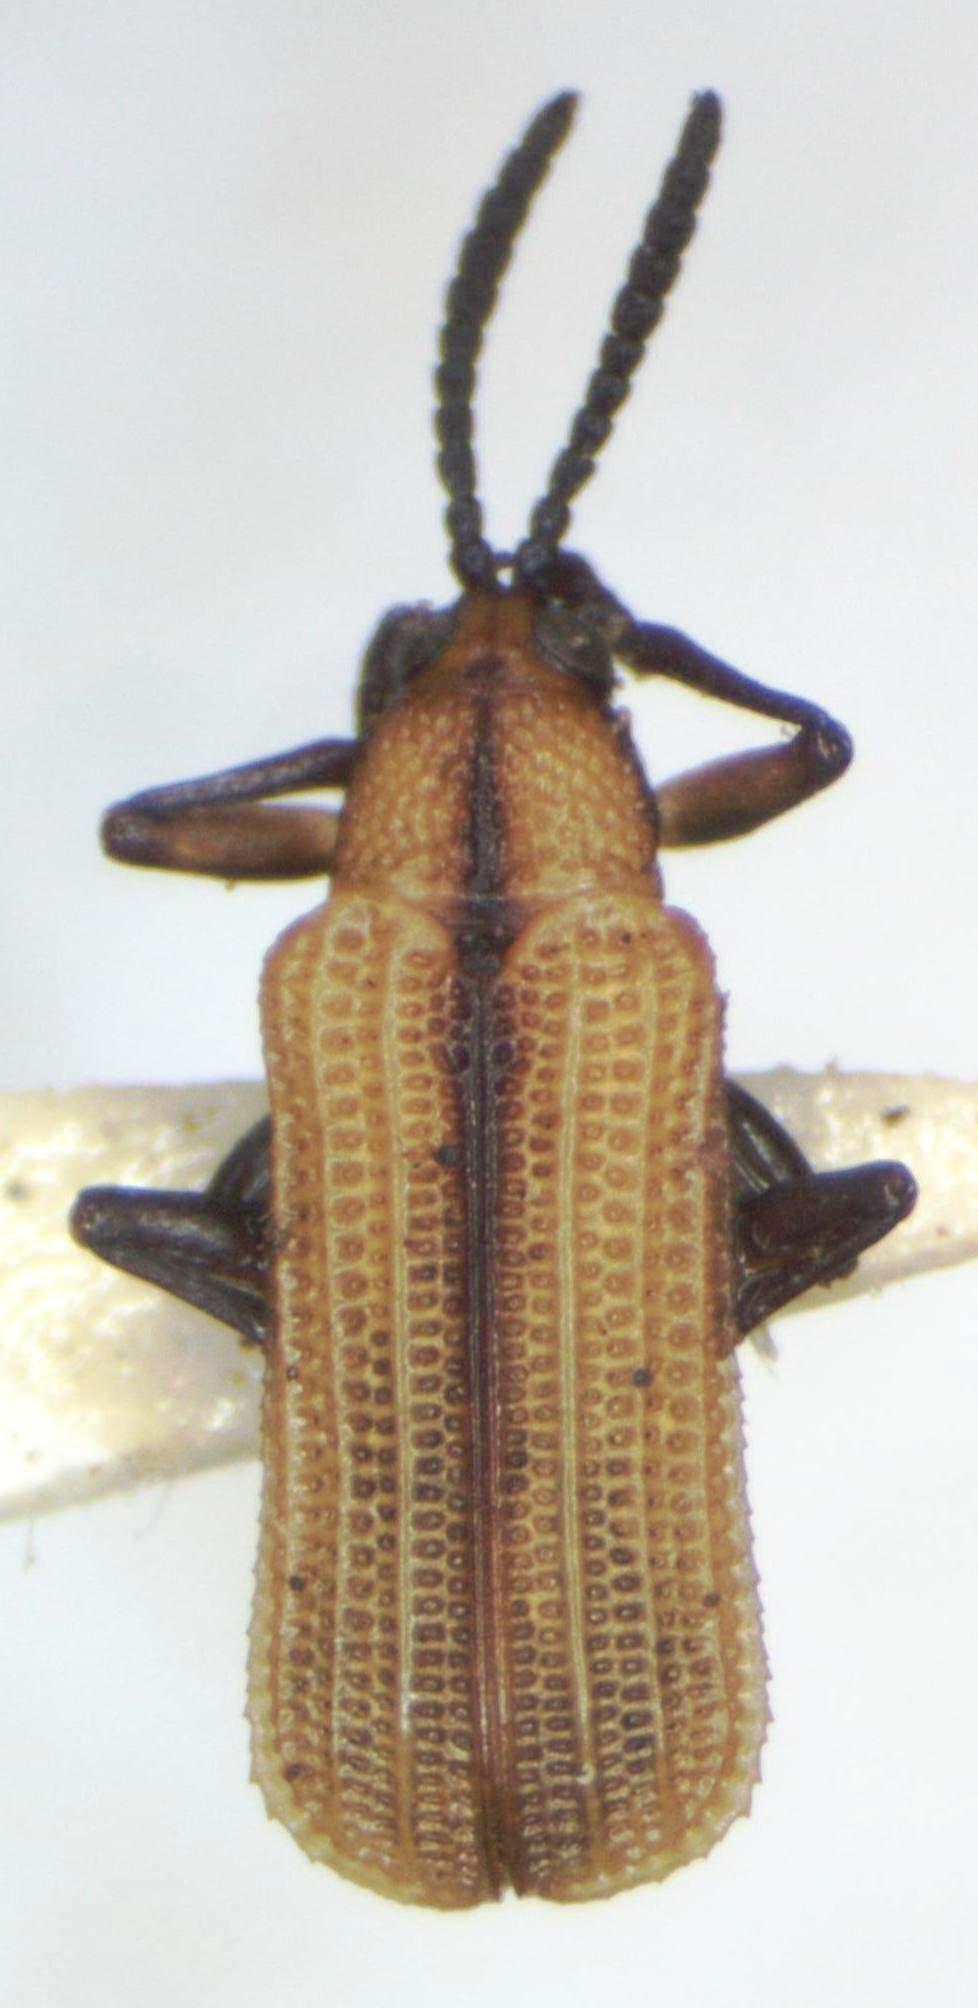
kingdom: Animalia
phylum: Arthropoda
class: Insecta
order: Coleoptera
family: Chrysomelidae
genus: Chalepus
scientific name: Chalepus digressus
